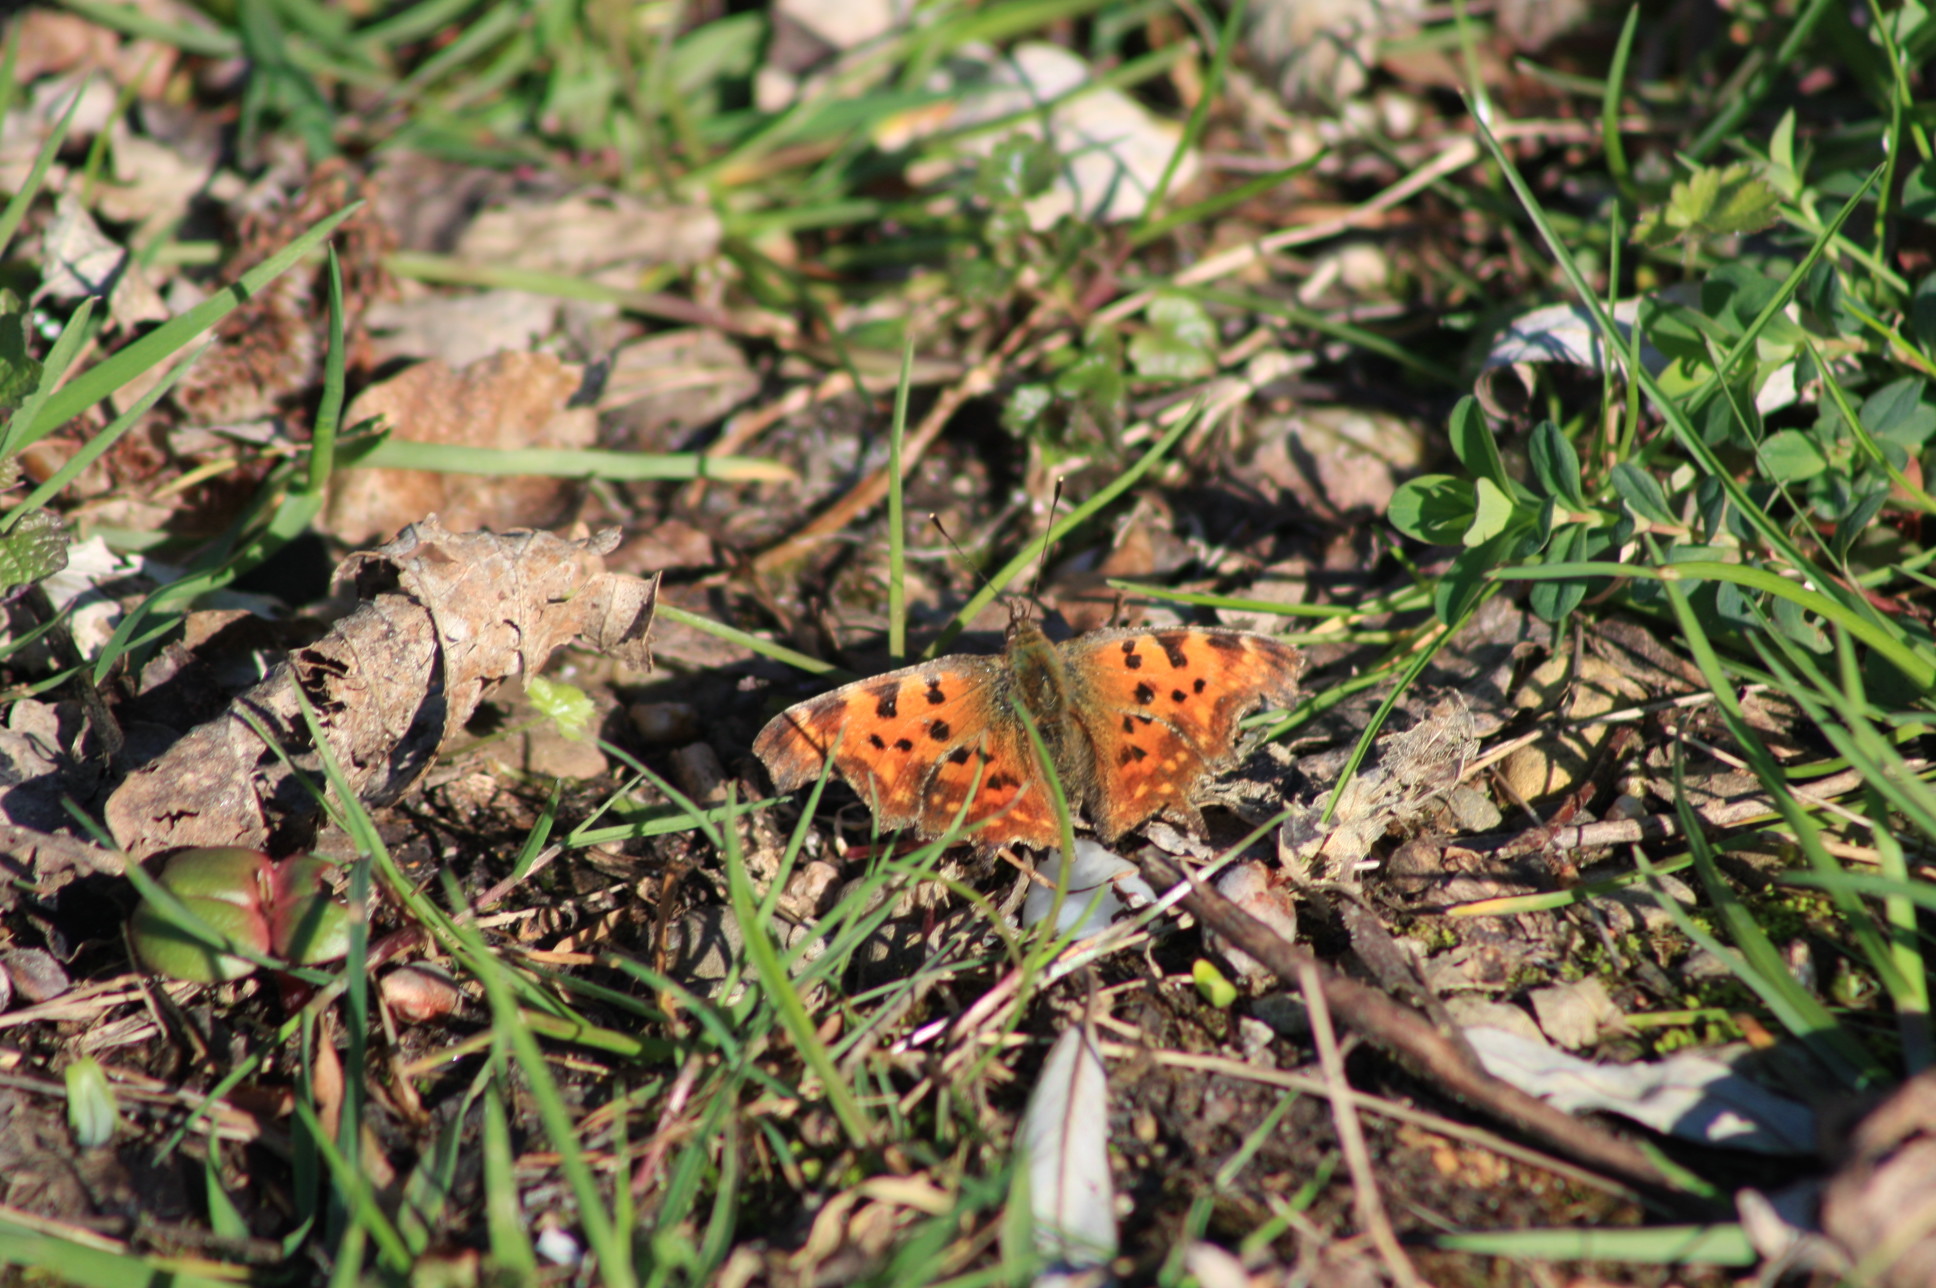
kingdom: Animalia
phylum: Arthropoda
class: Insecta
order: Lepidoptera
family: Nymphalidae
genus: Polygonia
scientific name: Polygonia c-album
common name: Comma
